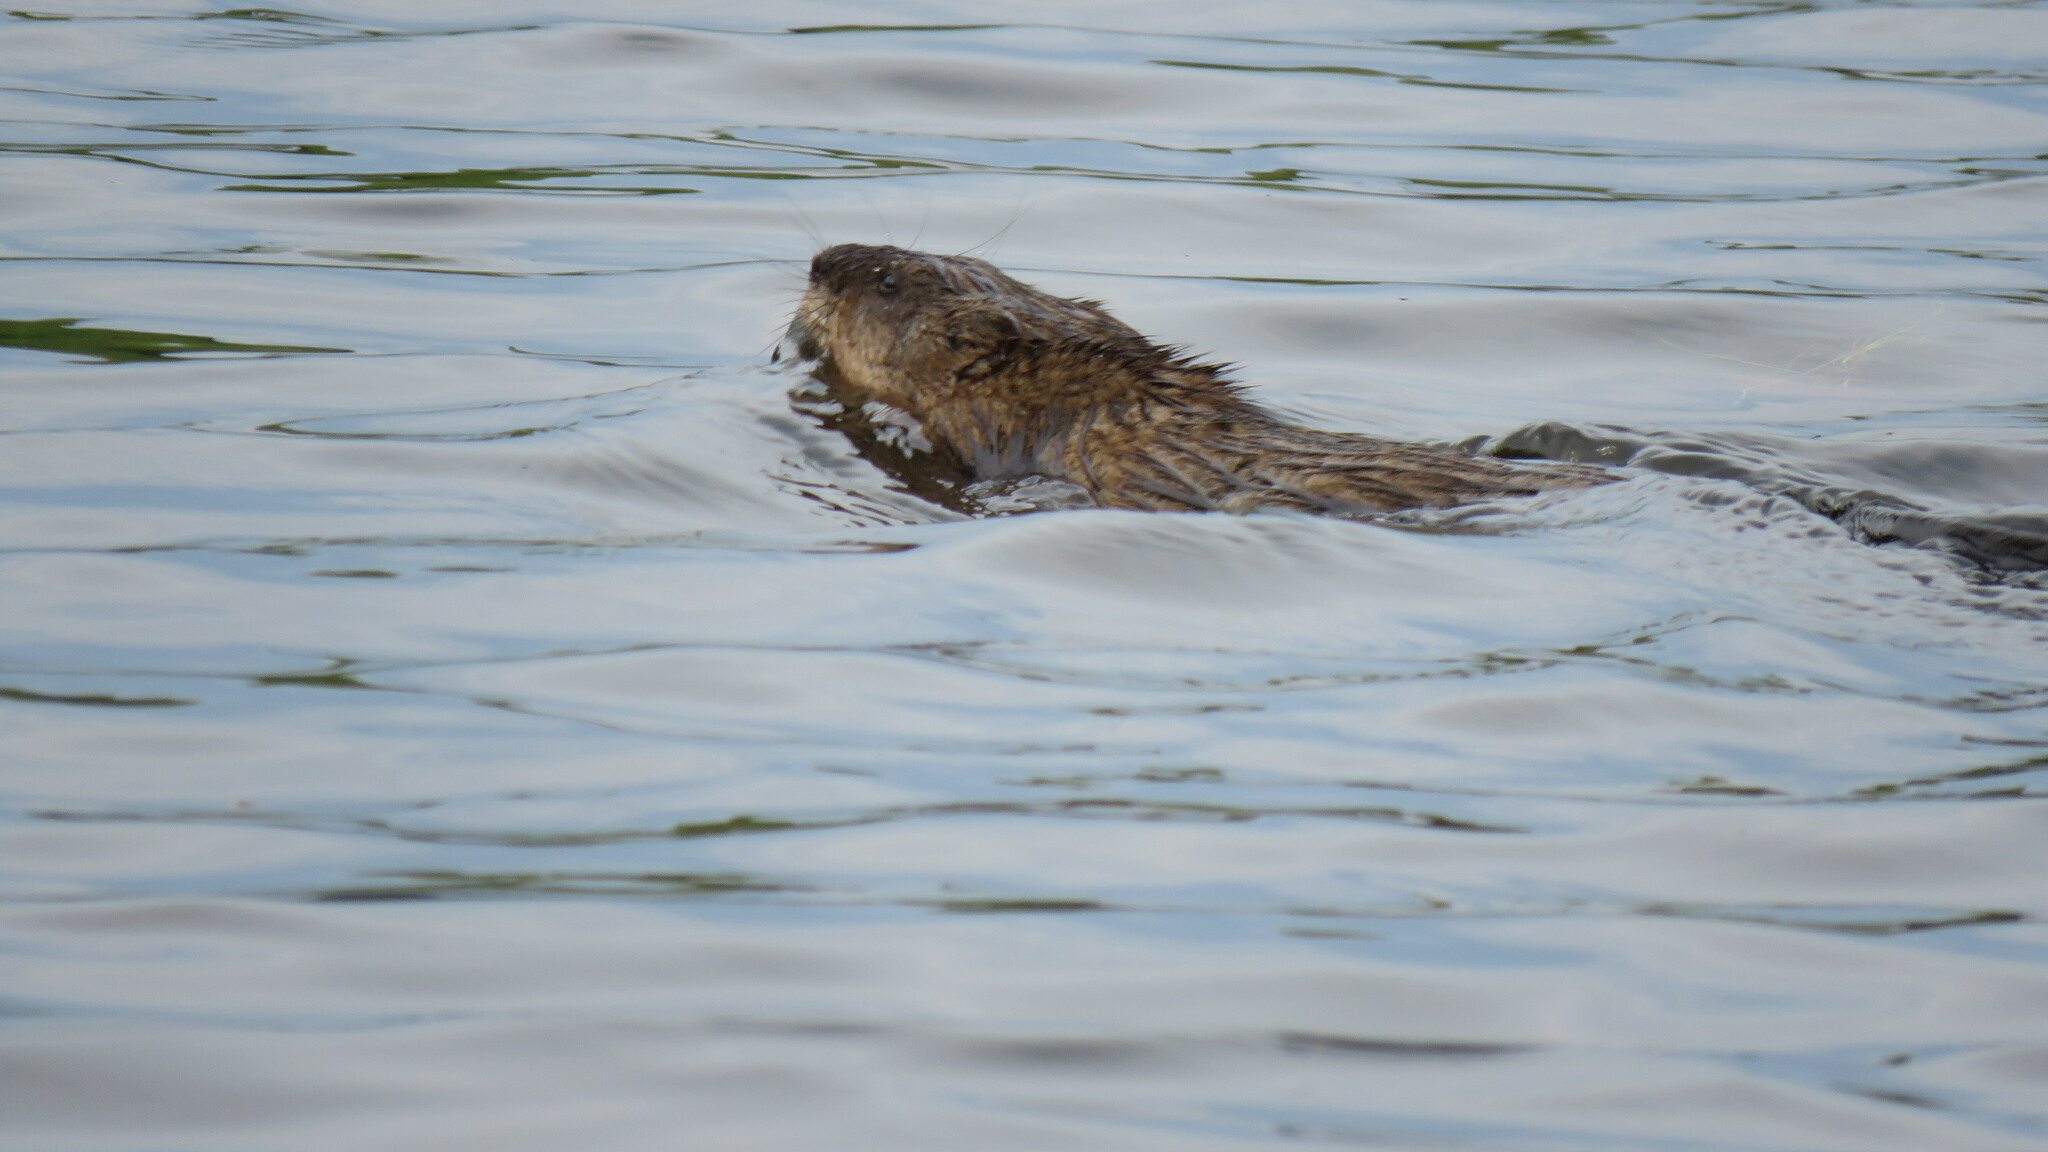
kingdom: Animalia
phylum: Chordata
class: Mammalia
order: Rodentia
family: Cricetidae
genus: Ondatra
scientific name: Ondatra zibethicus
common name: Muskrat
